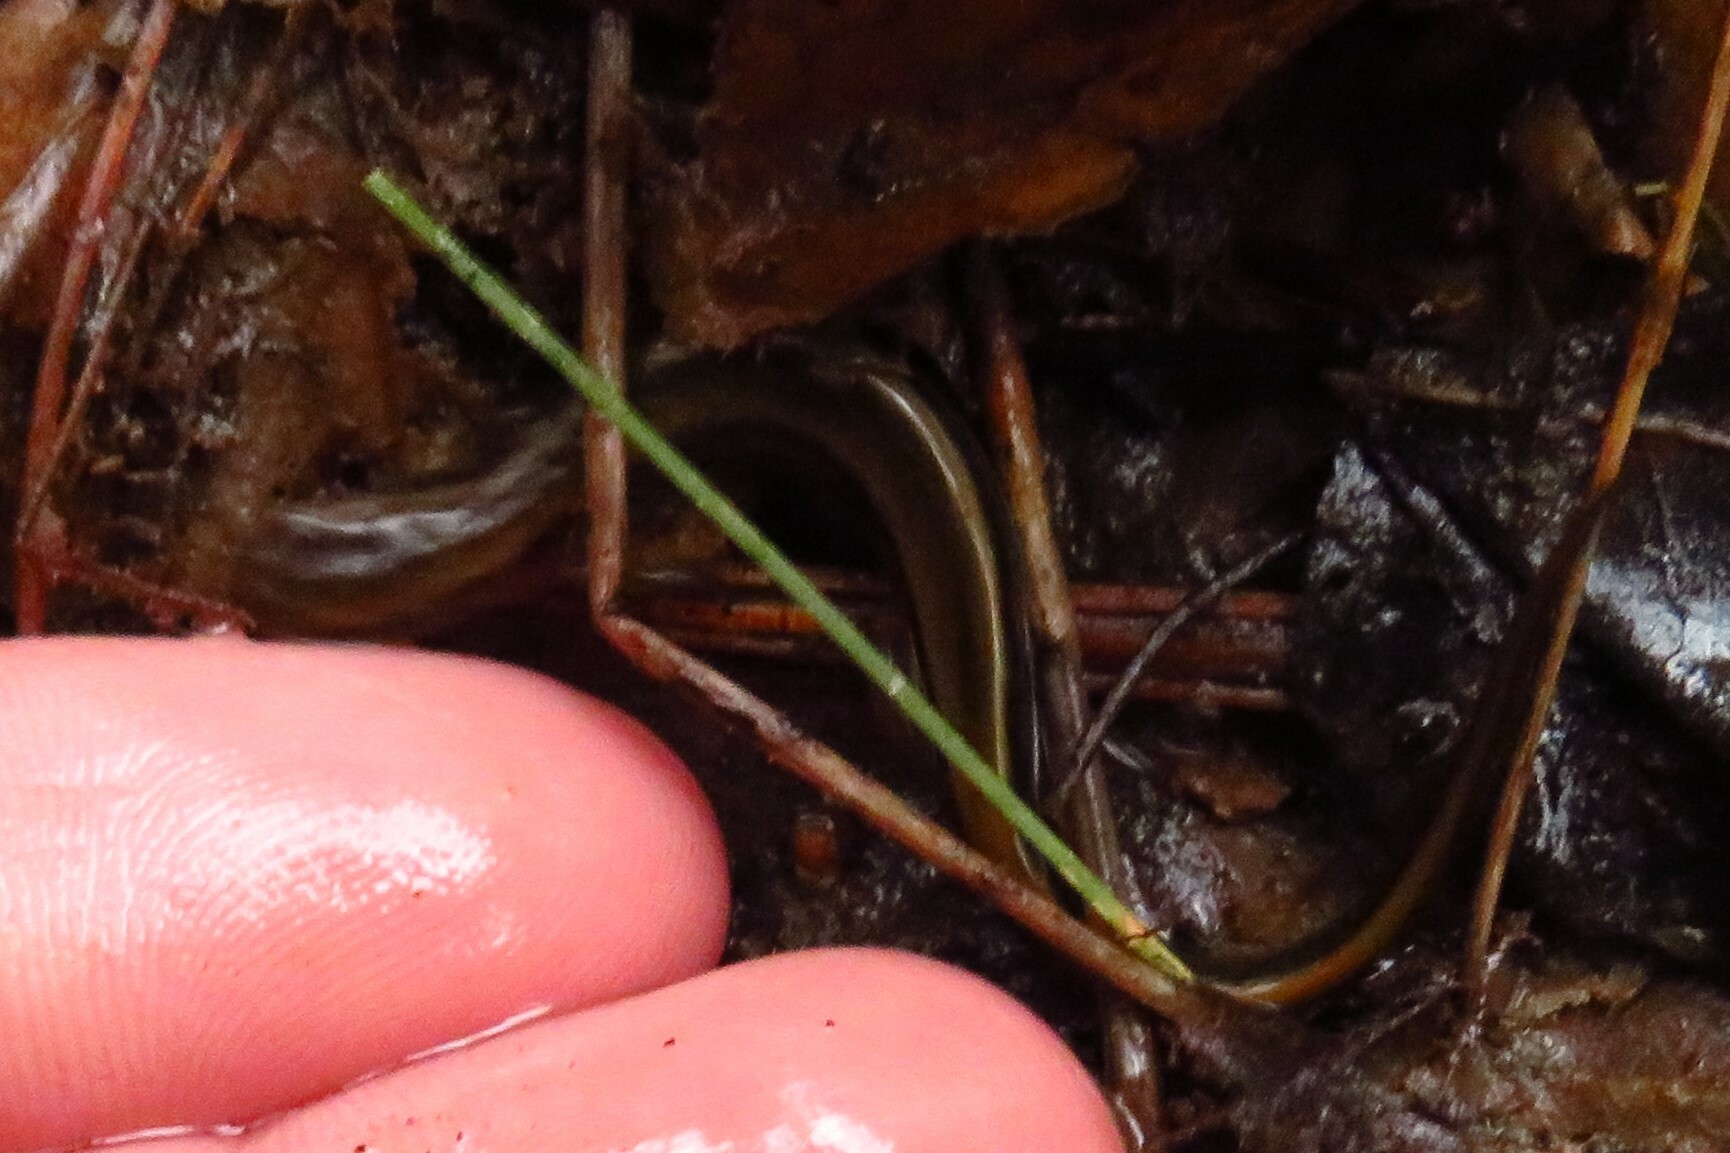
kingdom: Animalia
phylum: Chordata
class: Amphibia
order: Caudata
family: Plethodontidae
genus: Eurycea
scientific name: Eurycea bislineata
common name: Northern two-lined salamander
